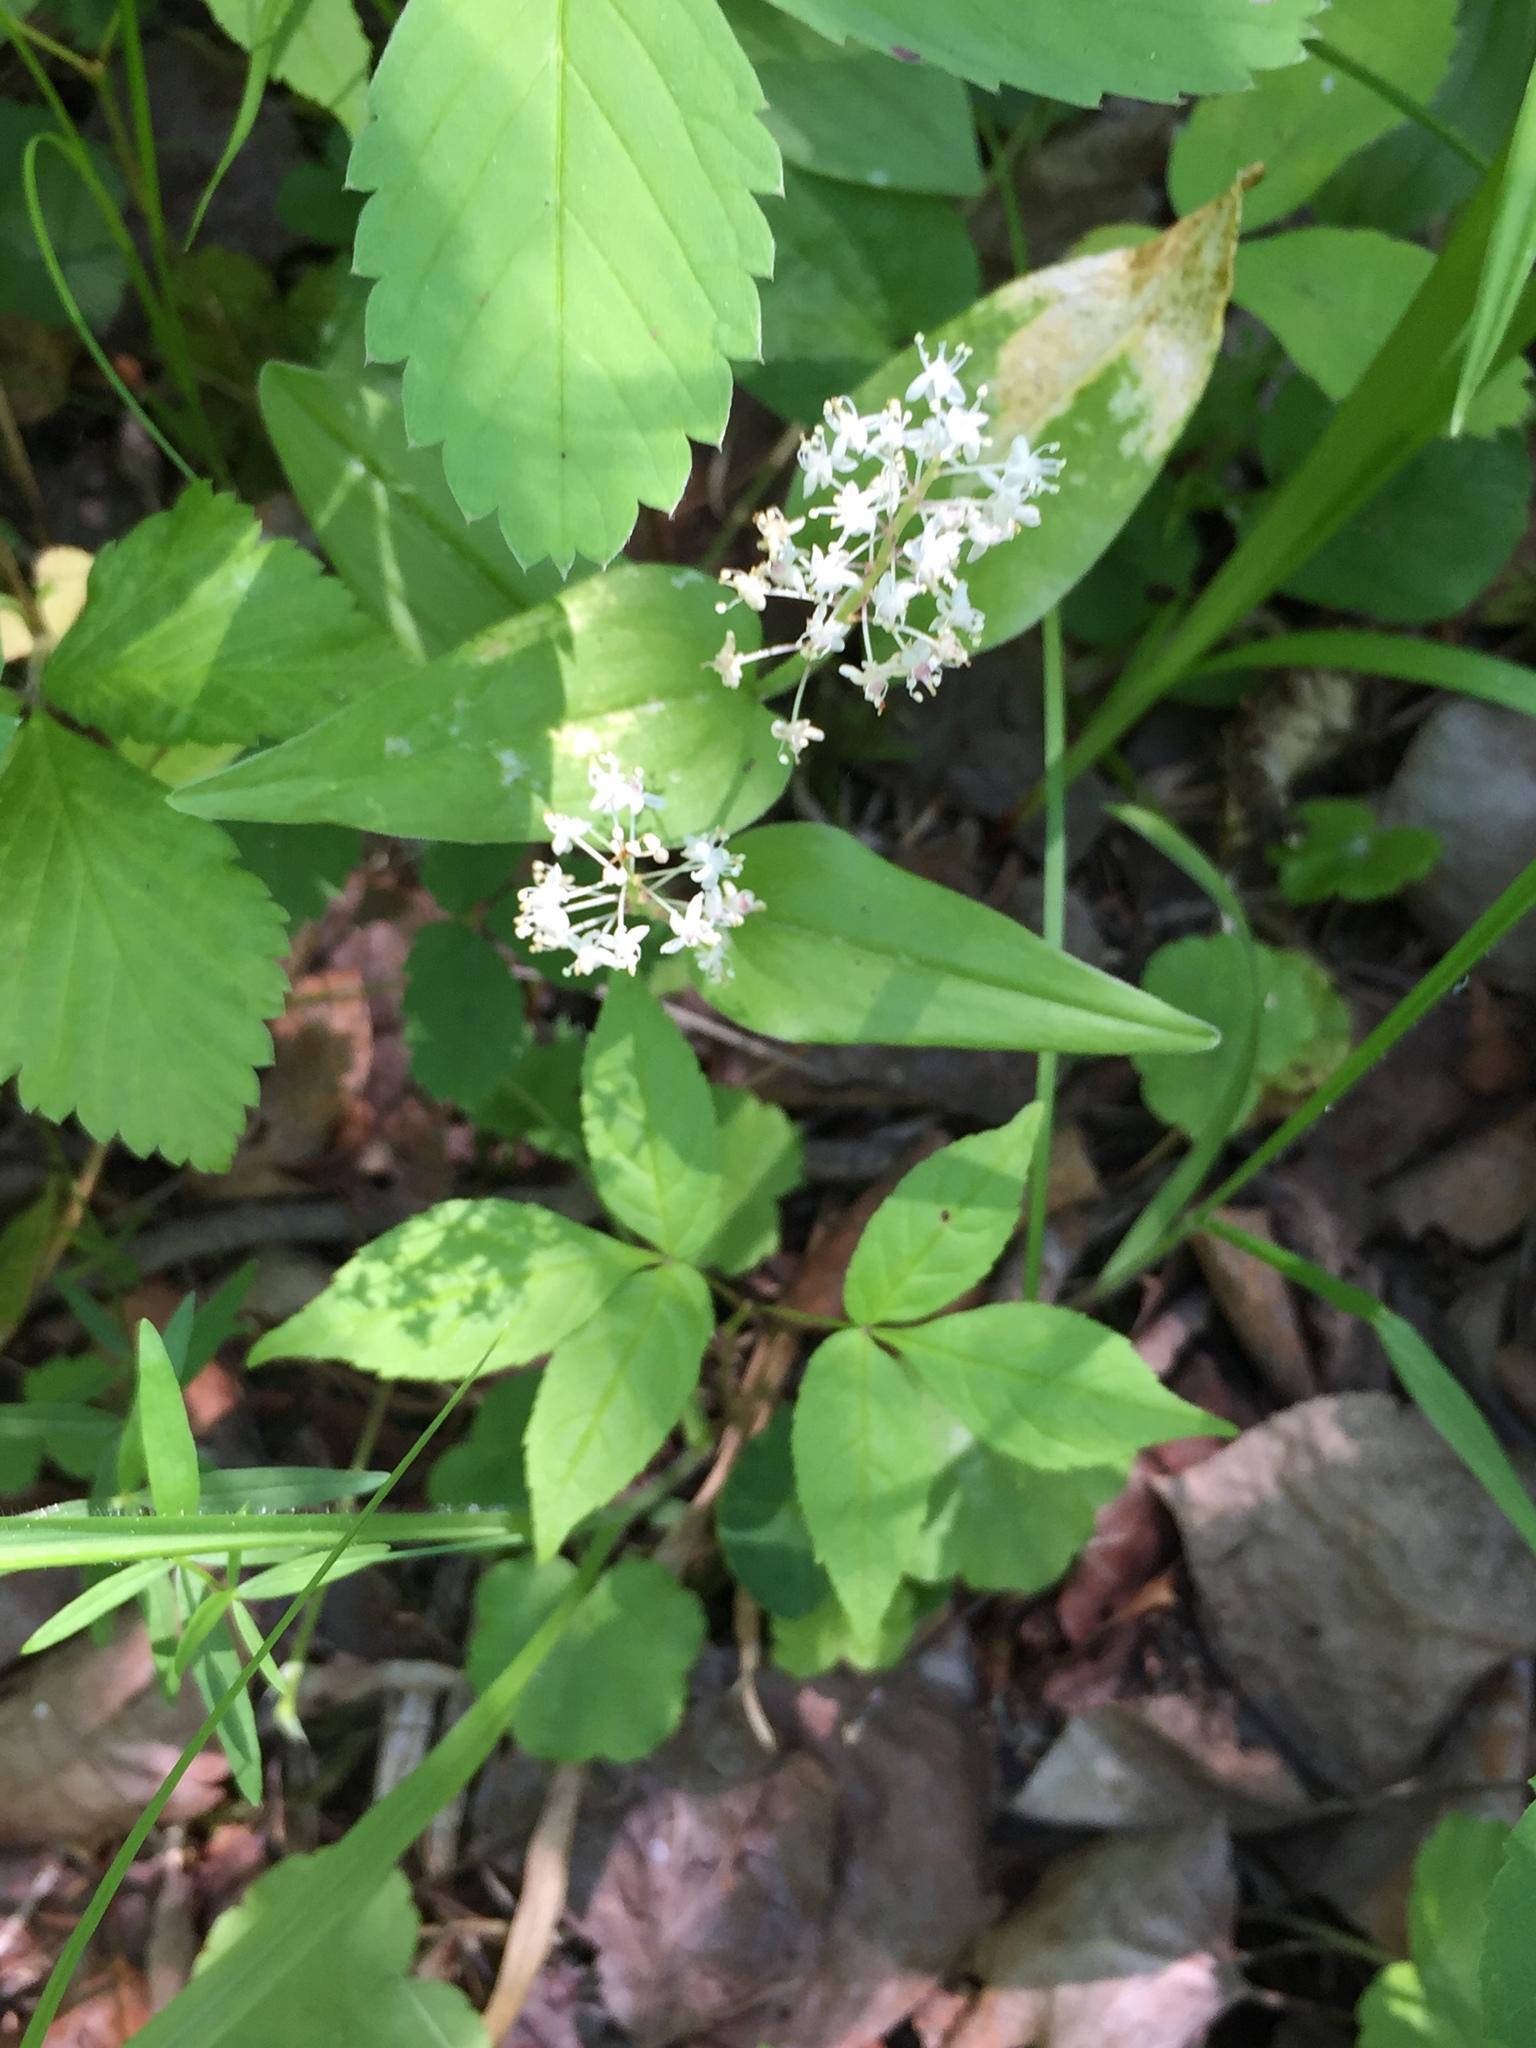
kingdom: Plantae
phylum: Tracheophyta
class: Liliopsida
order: Asparagales
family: Asparagaceae
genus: Maianthemum
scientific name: Maianthemum canadense
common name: False lily-of-the-valley
